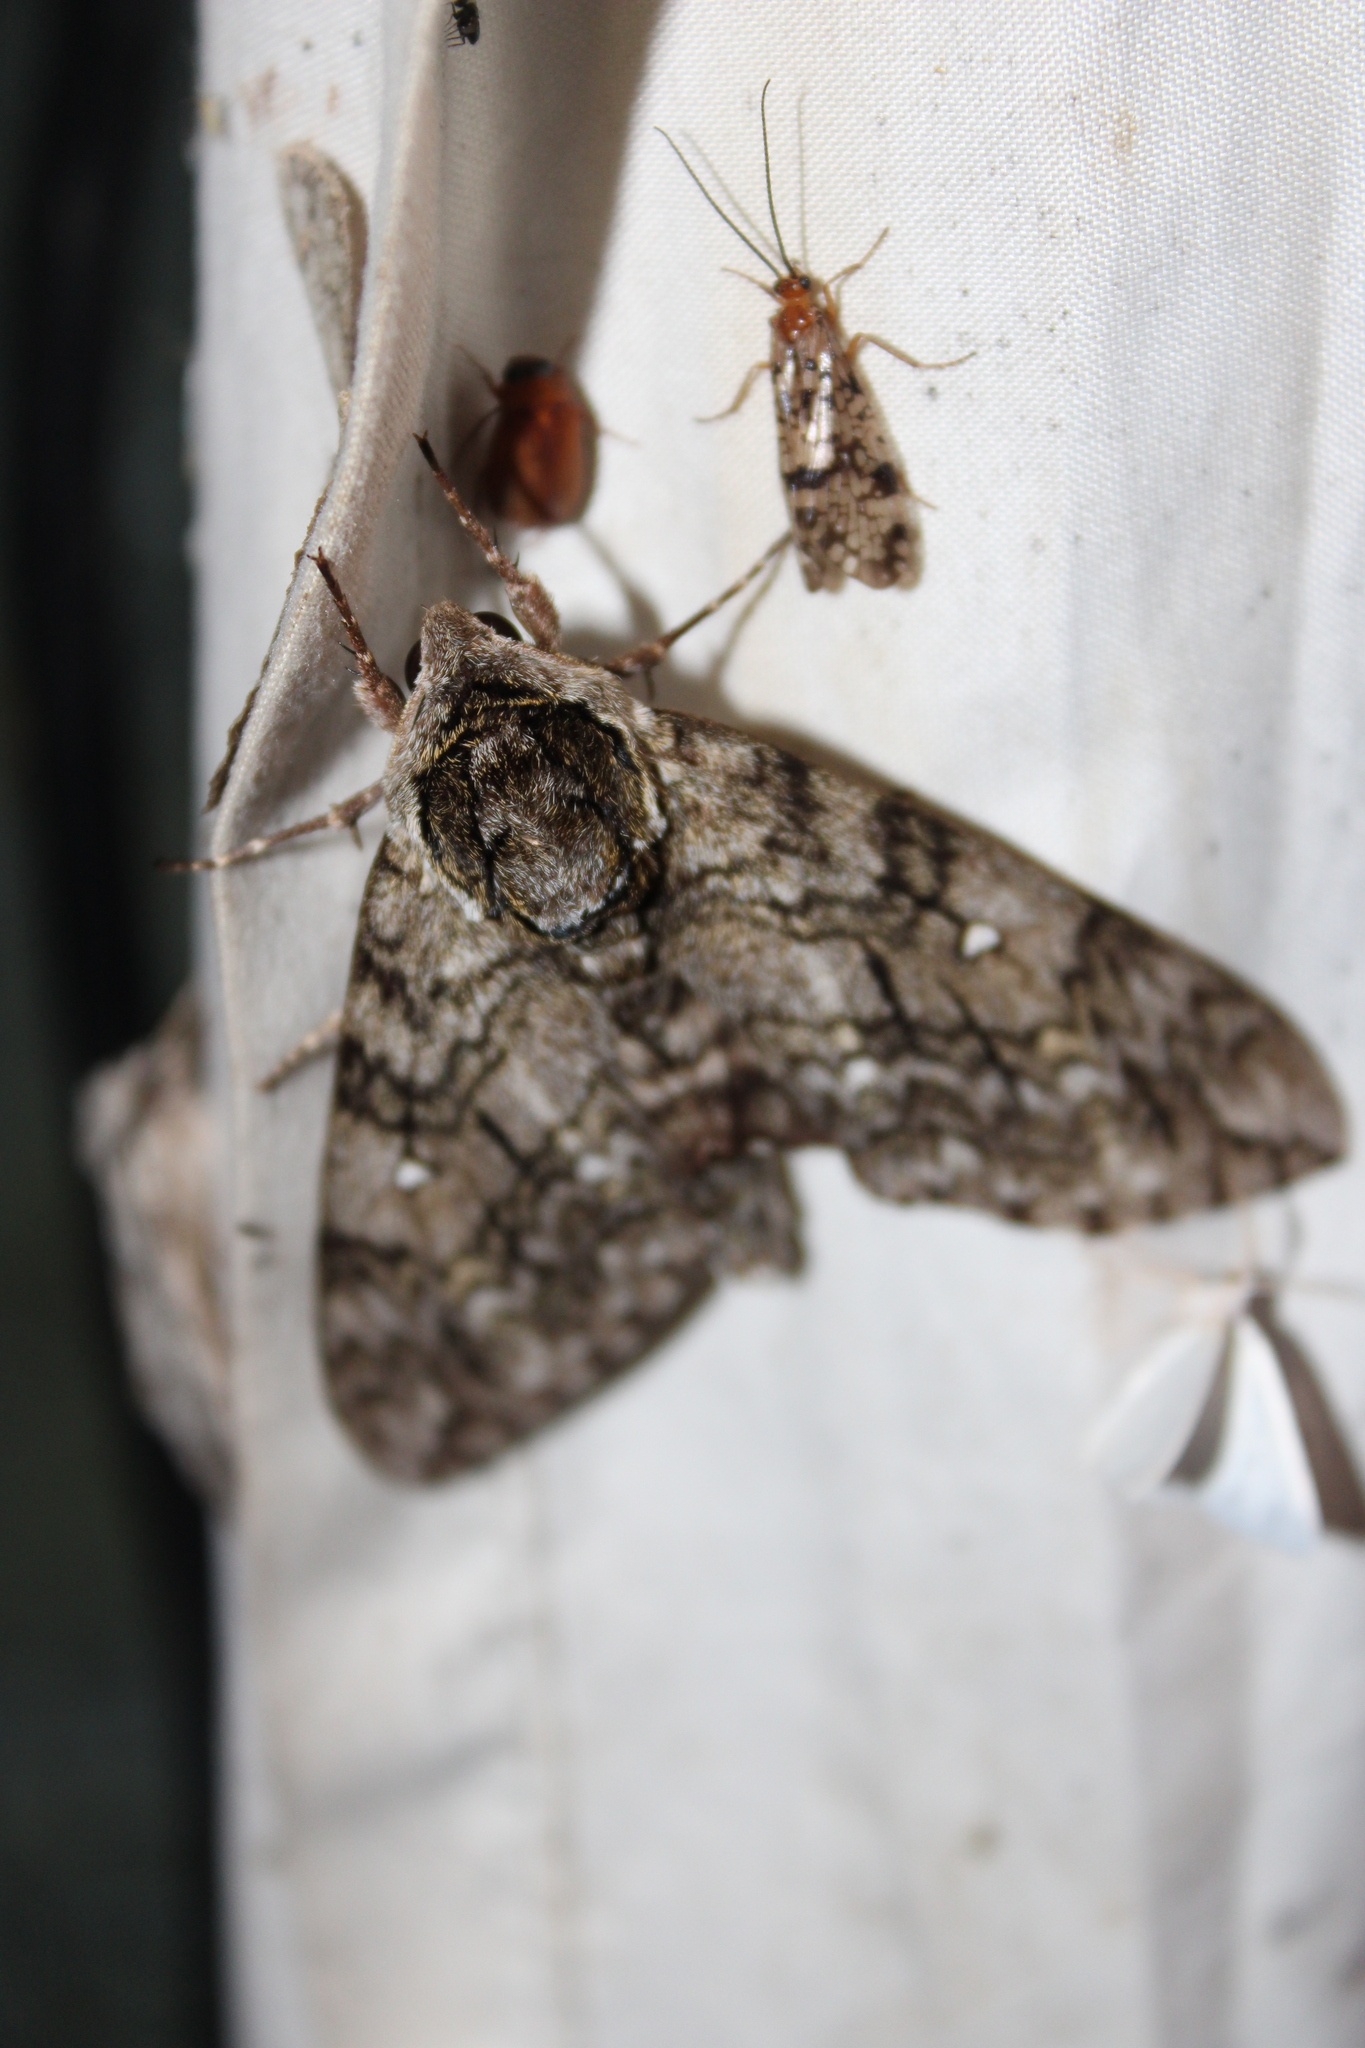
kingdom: Animalia
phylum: Arthropoda
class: Insecta
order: Lepidoptera
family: Sphingidae
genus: Ceratomia
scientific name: Ceratomia undulosa
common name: Waved sphinx
